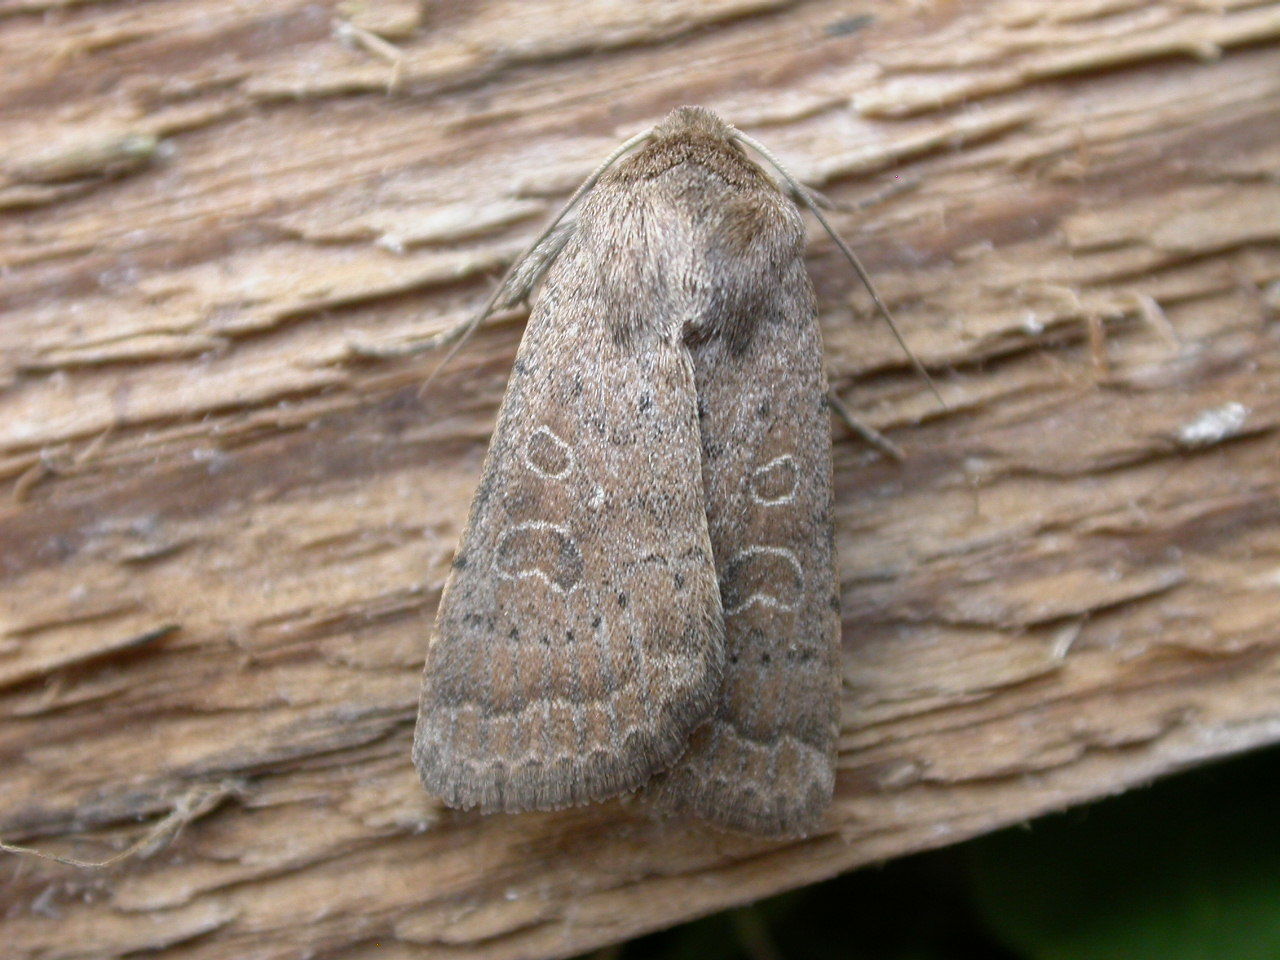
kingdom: Animalia
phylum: Arthropoda
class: Insecta
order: Lepidoptera
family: Noctuidae
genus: Hoplodrina
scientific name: Hoplodrina blanda
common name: Rustic
